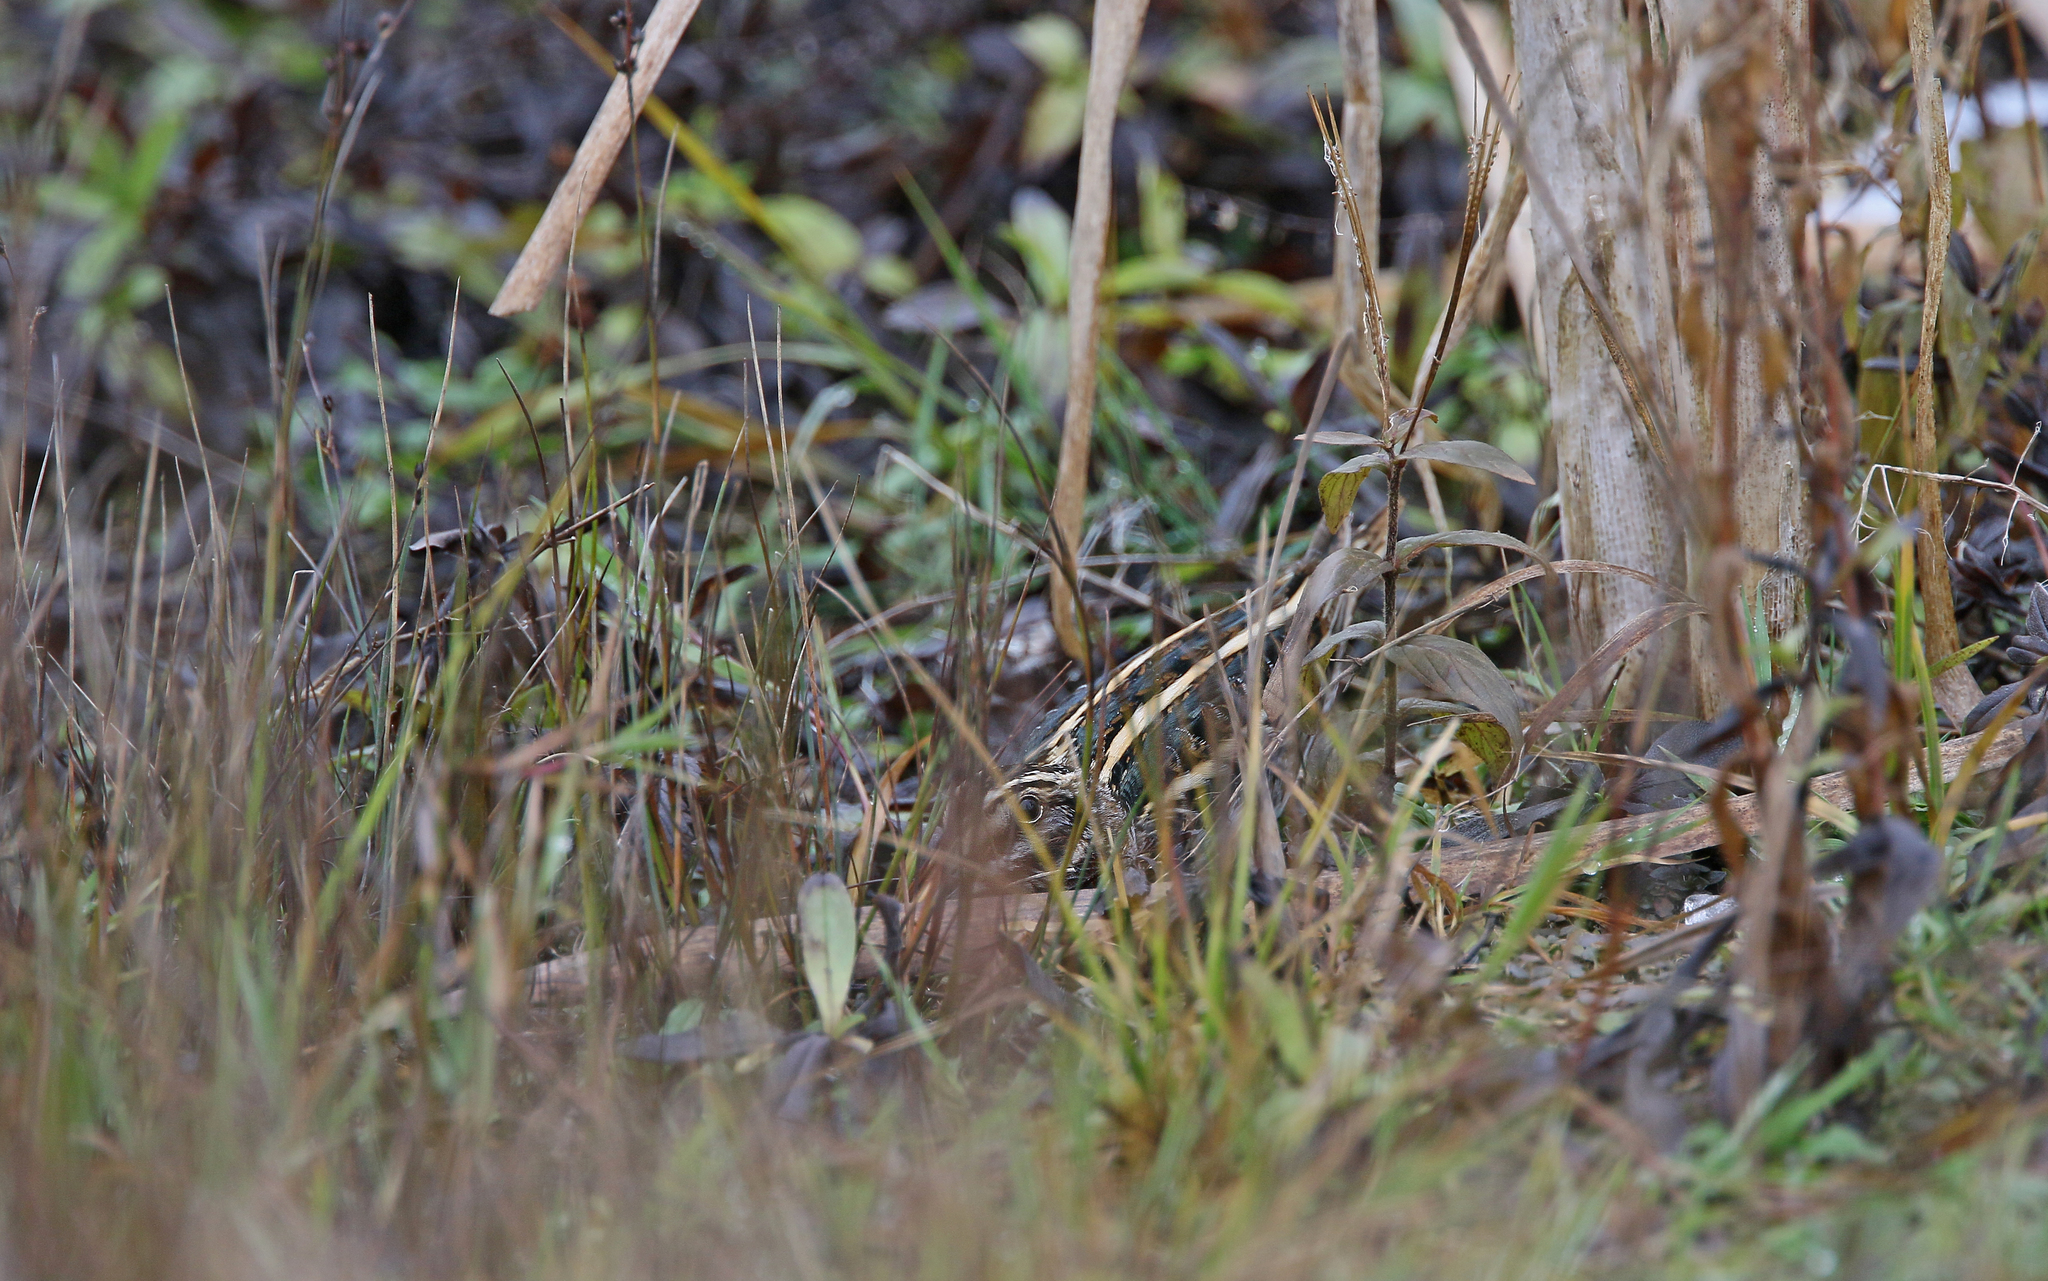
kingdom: Animalia
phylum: Chordata
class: Aves
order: Charadriiformes
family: Scolopacidae
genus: Lymnocryptes
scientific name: Lymnocryptes minimus
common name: Jack snipe
